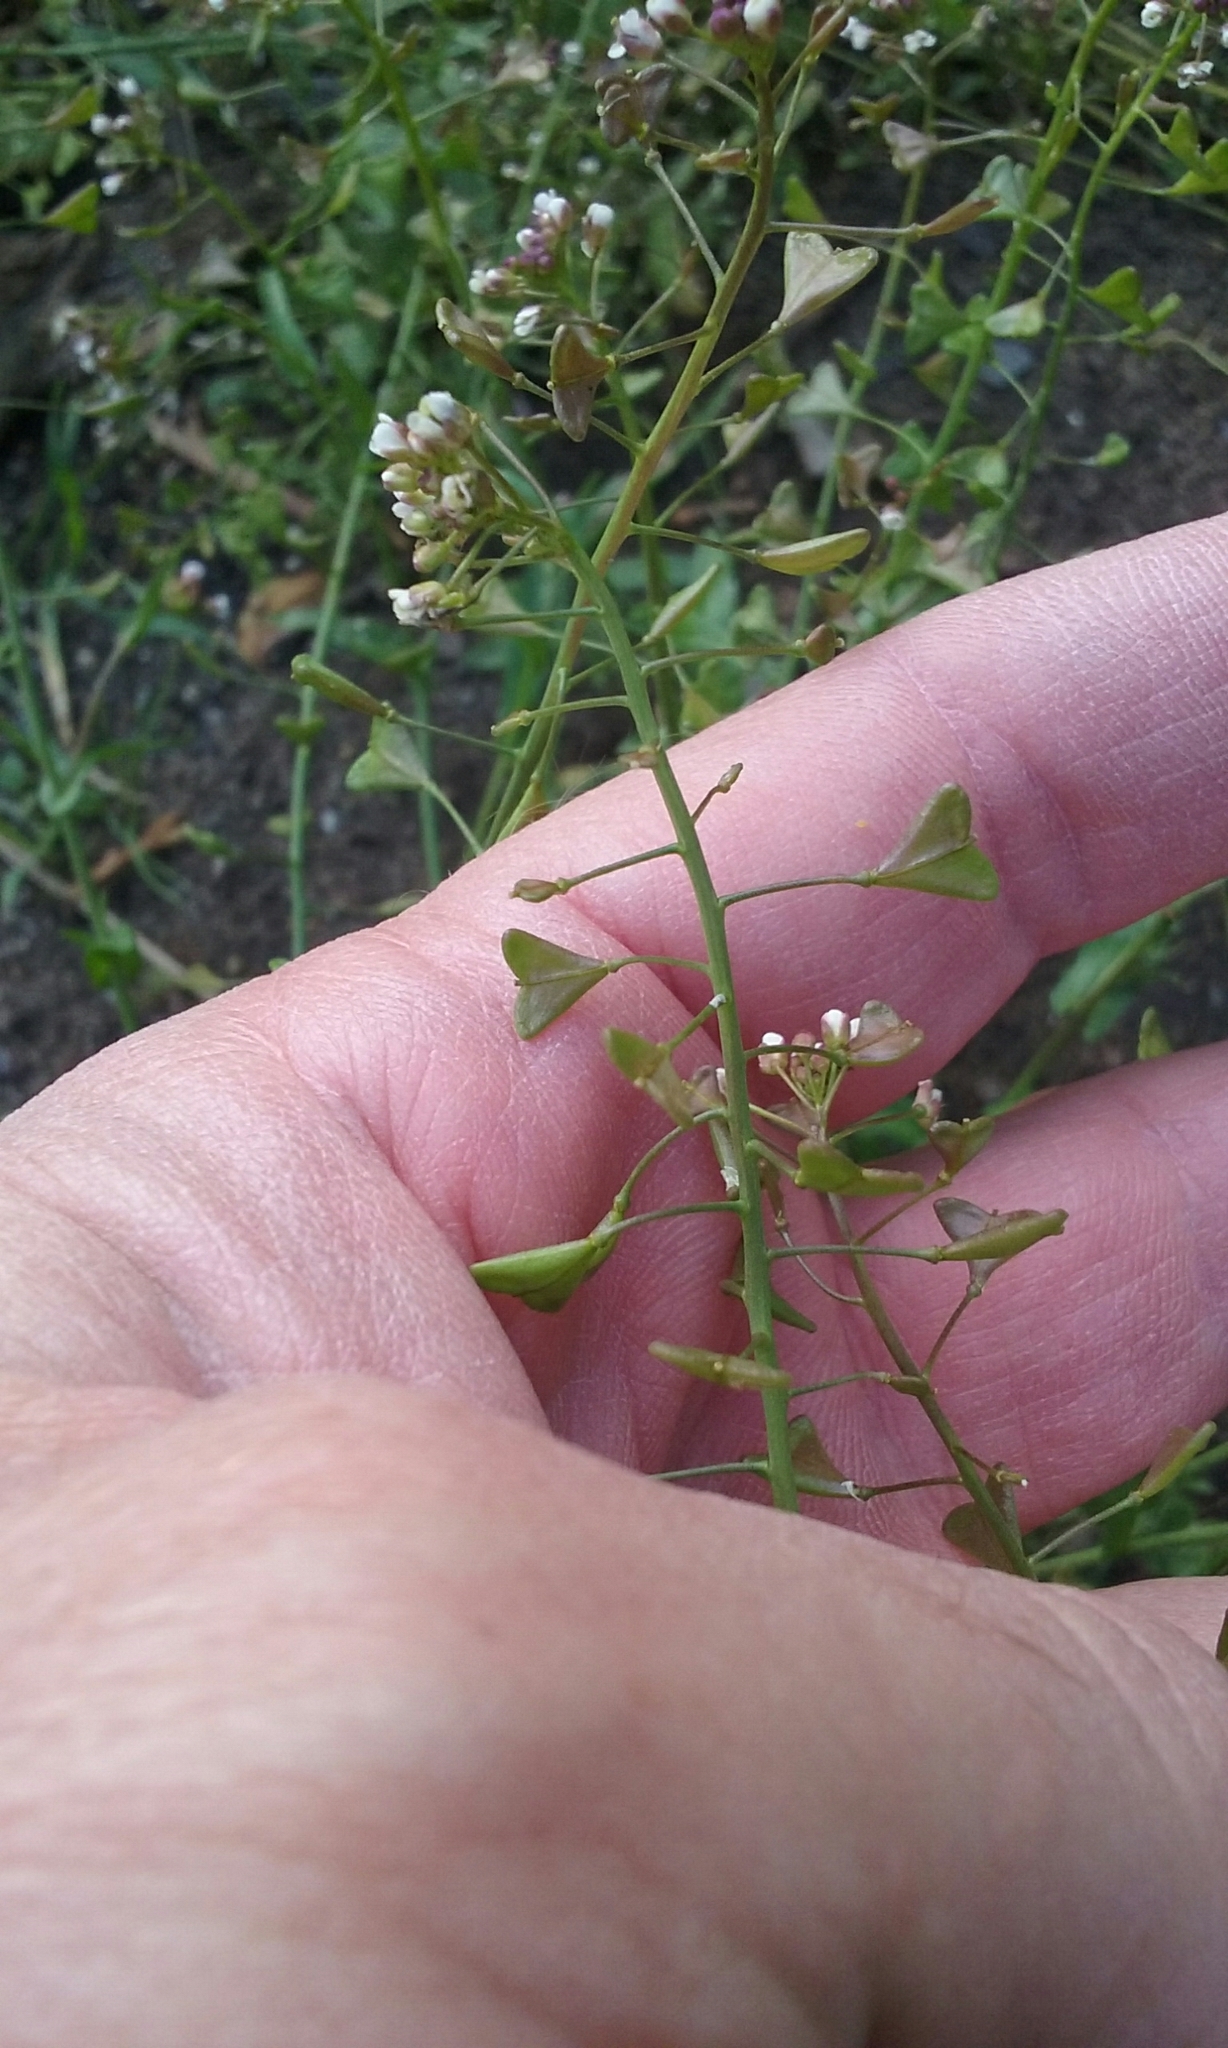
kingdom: Plantae
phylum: Tracheophyta
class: Magnoliopsida
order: Brassicales
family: Brassicaceae
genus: Capsella
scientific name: Capsella bursa-pastoris
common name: Shepherd's purse
